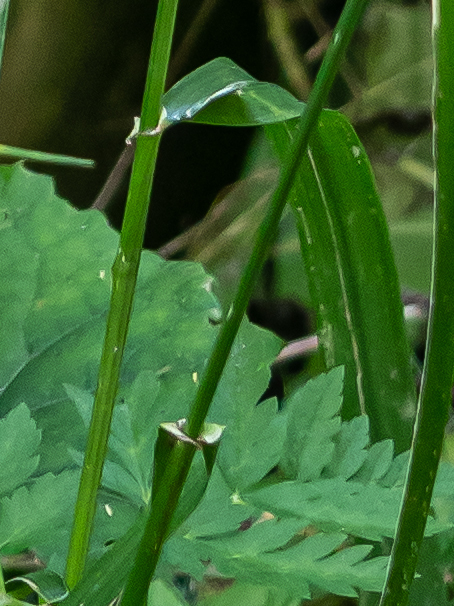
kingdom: Plantae
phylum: Tracheophyta
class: Liliopsida
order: Poales
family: Poaceae
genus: Lolium
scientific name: Lolium giganteum
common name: Giant fescue
